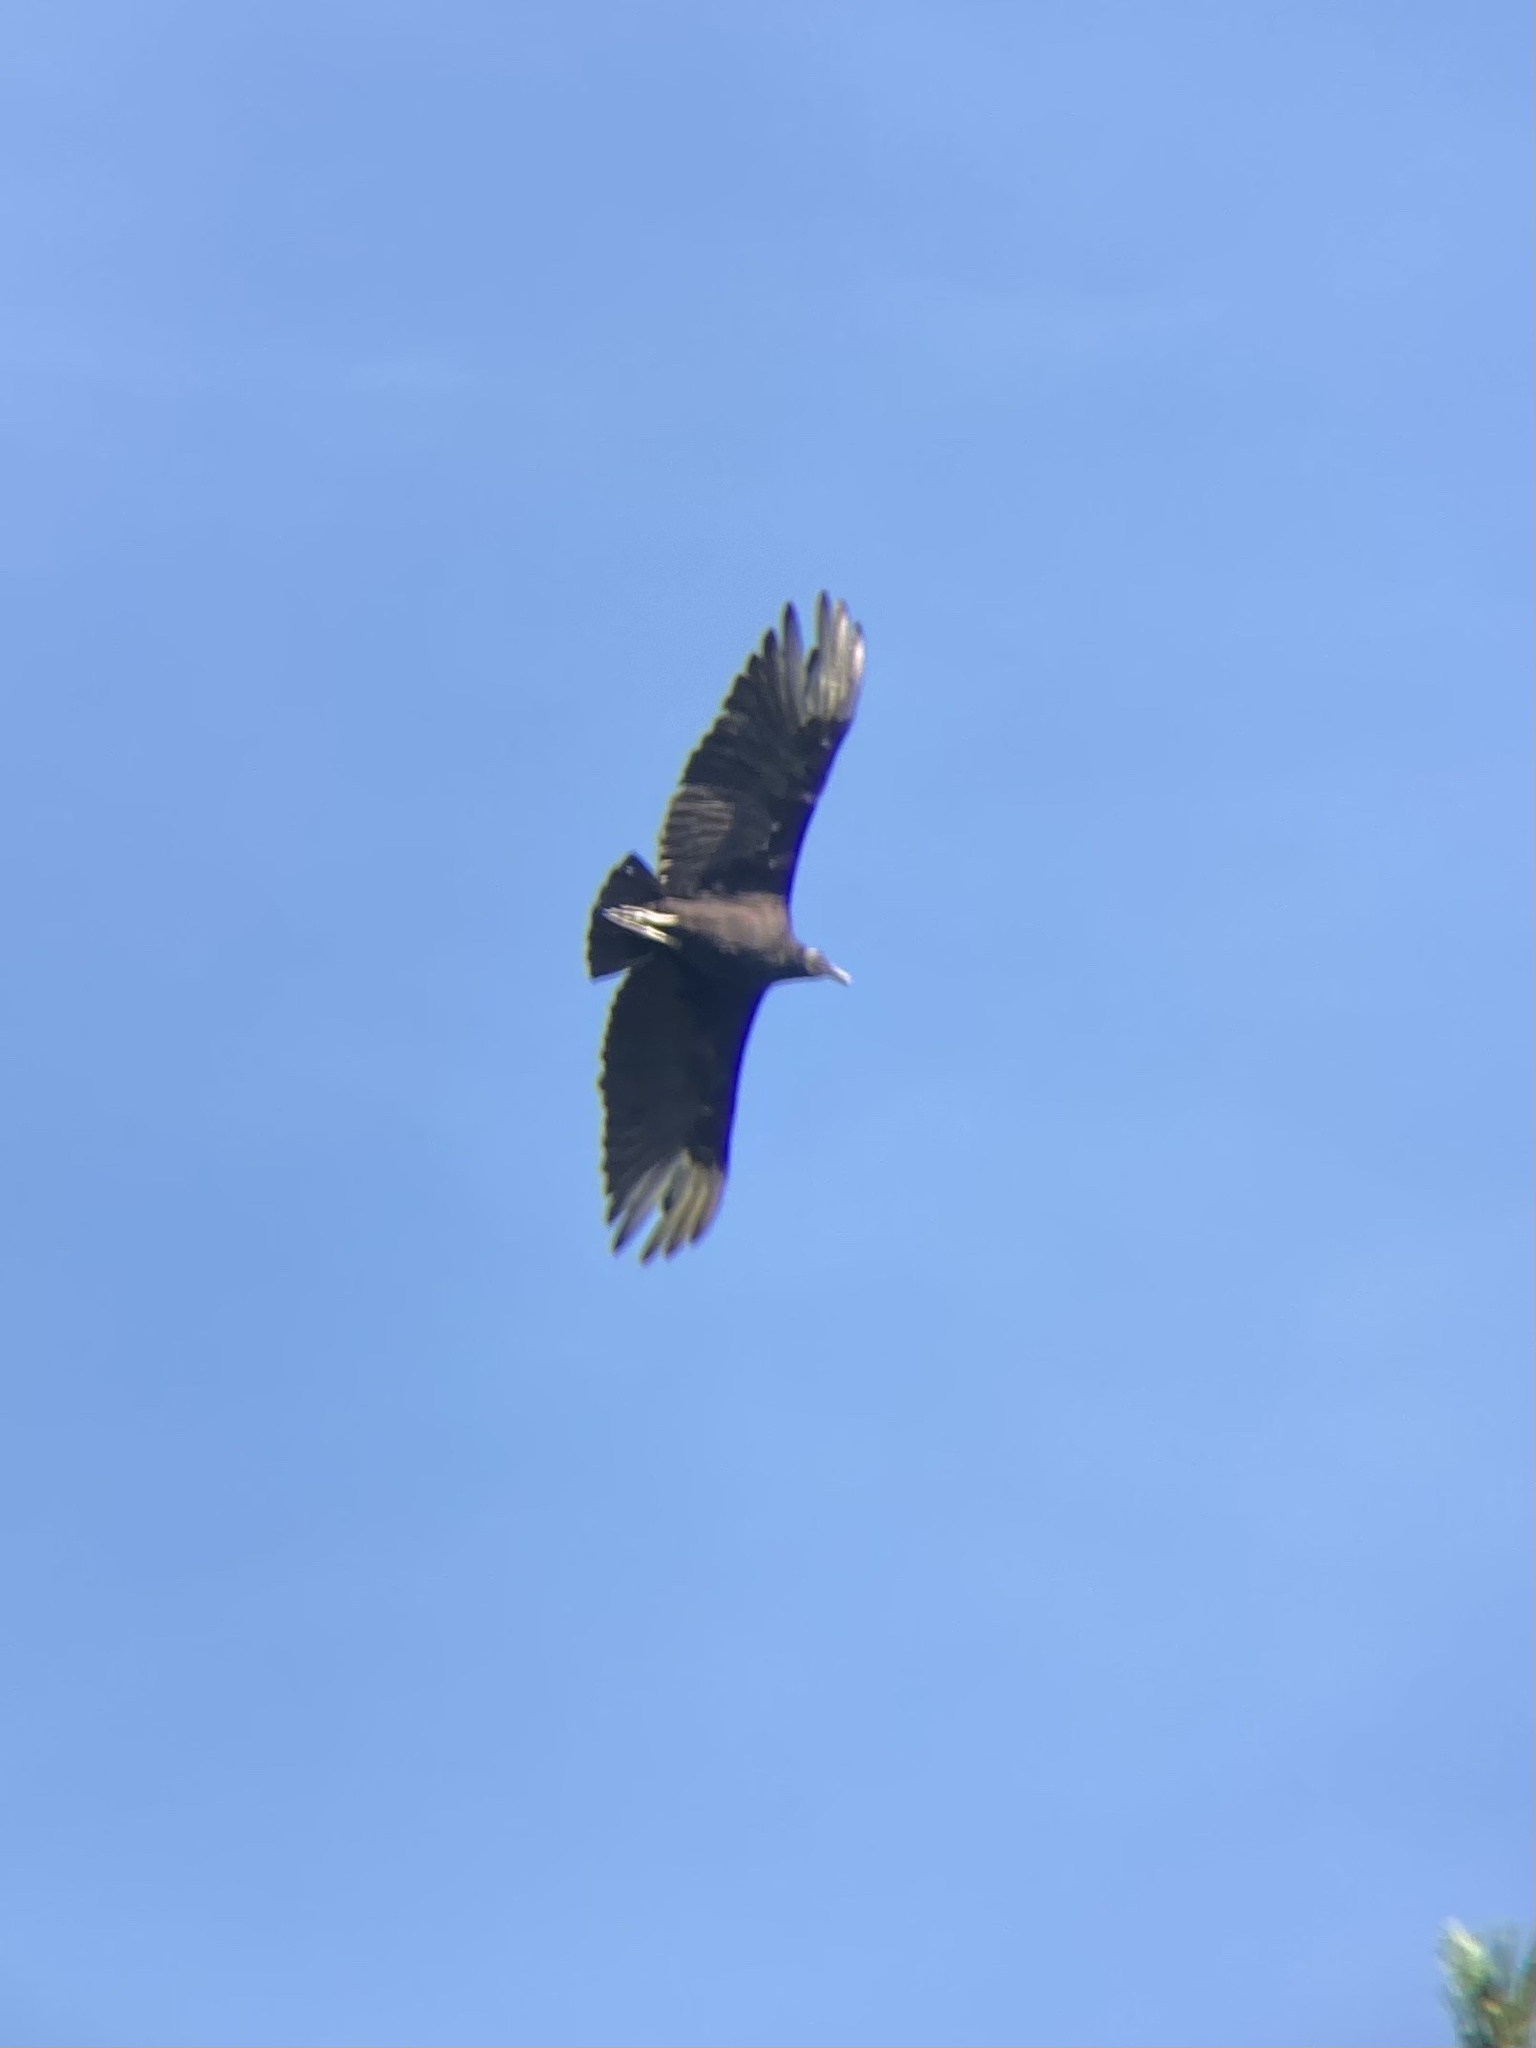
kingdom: Animalia
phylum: Chordata
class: Aves
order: Accipitriformes
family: Cathartidae
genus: Coragyps
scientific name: Coragyps atratus
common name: Black vulture
